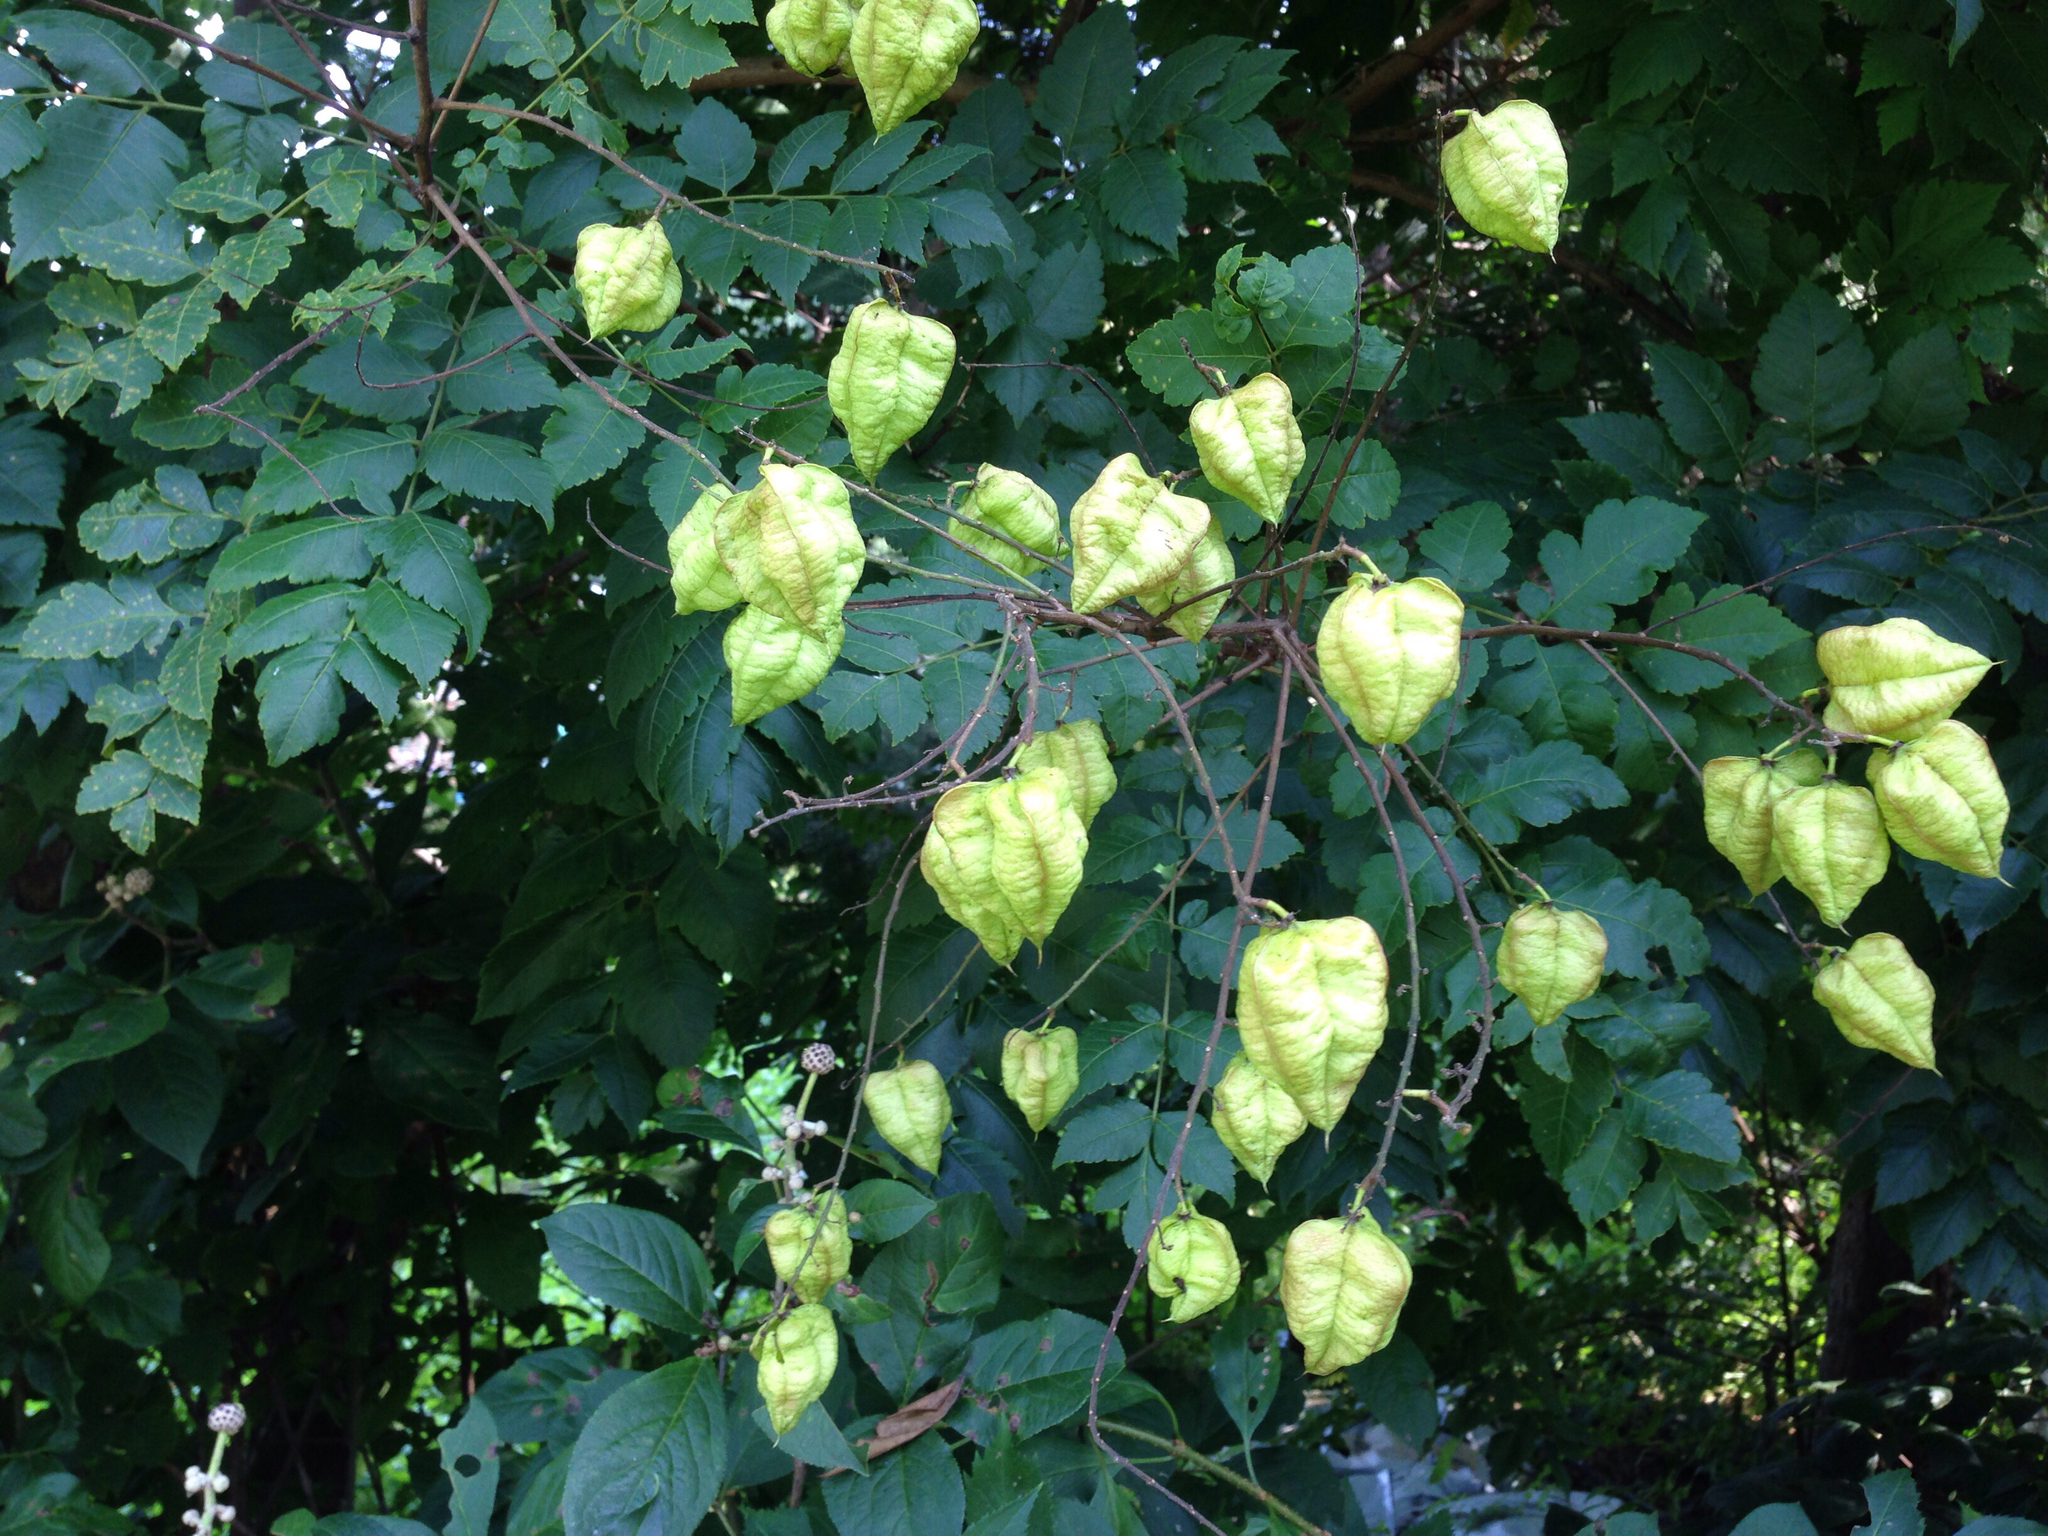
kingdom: Plantae
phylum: Tracheophyta
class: Magnoliopsida
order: Sapindales
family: Sapindaceae
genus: Koelreuteria
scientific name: Koelreuteria paniculata
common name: Pride-of-india
